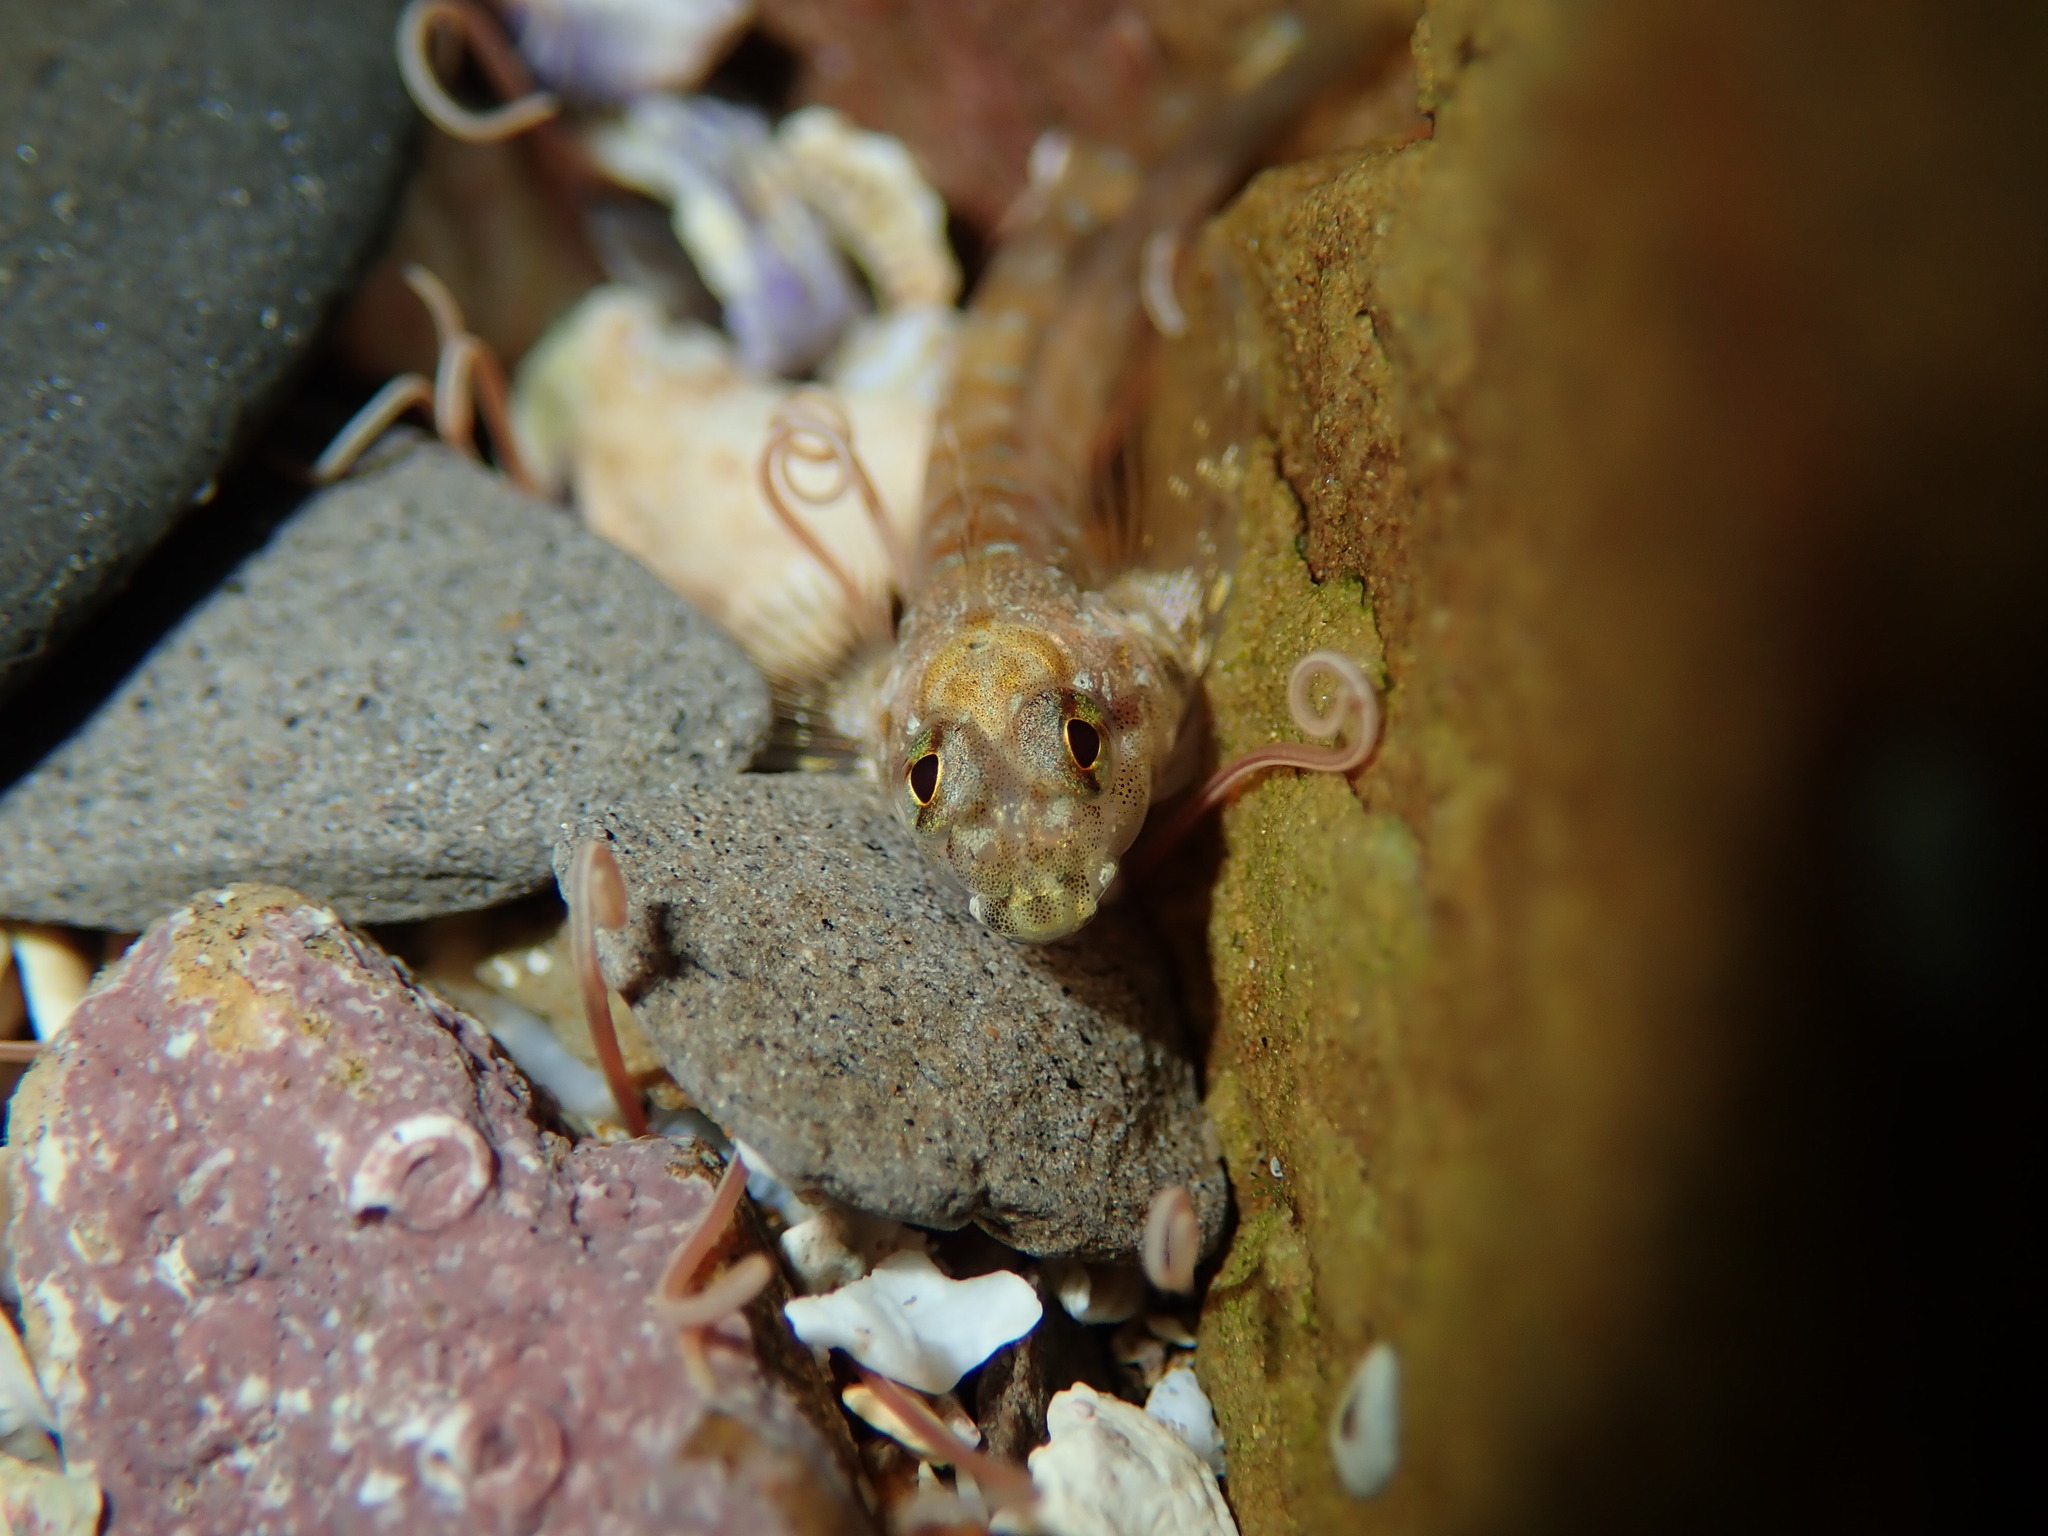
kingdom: Animalia
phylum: Chordata
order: Perciformes
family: Tripterygiidae
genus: Lepidoblennius
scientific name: Lepidoblennius haplodactylus
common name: Eastern jumping blenny
